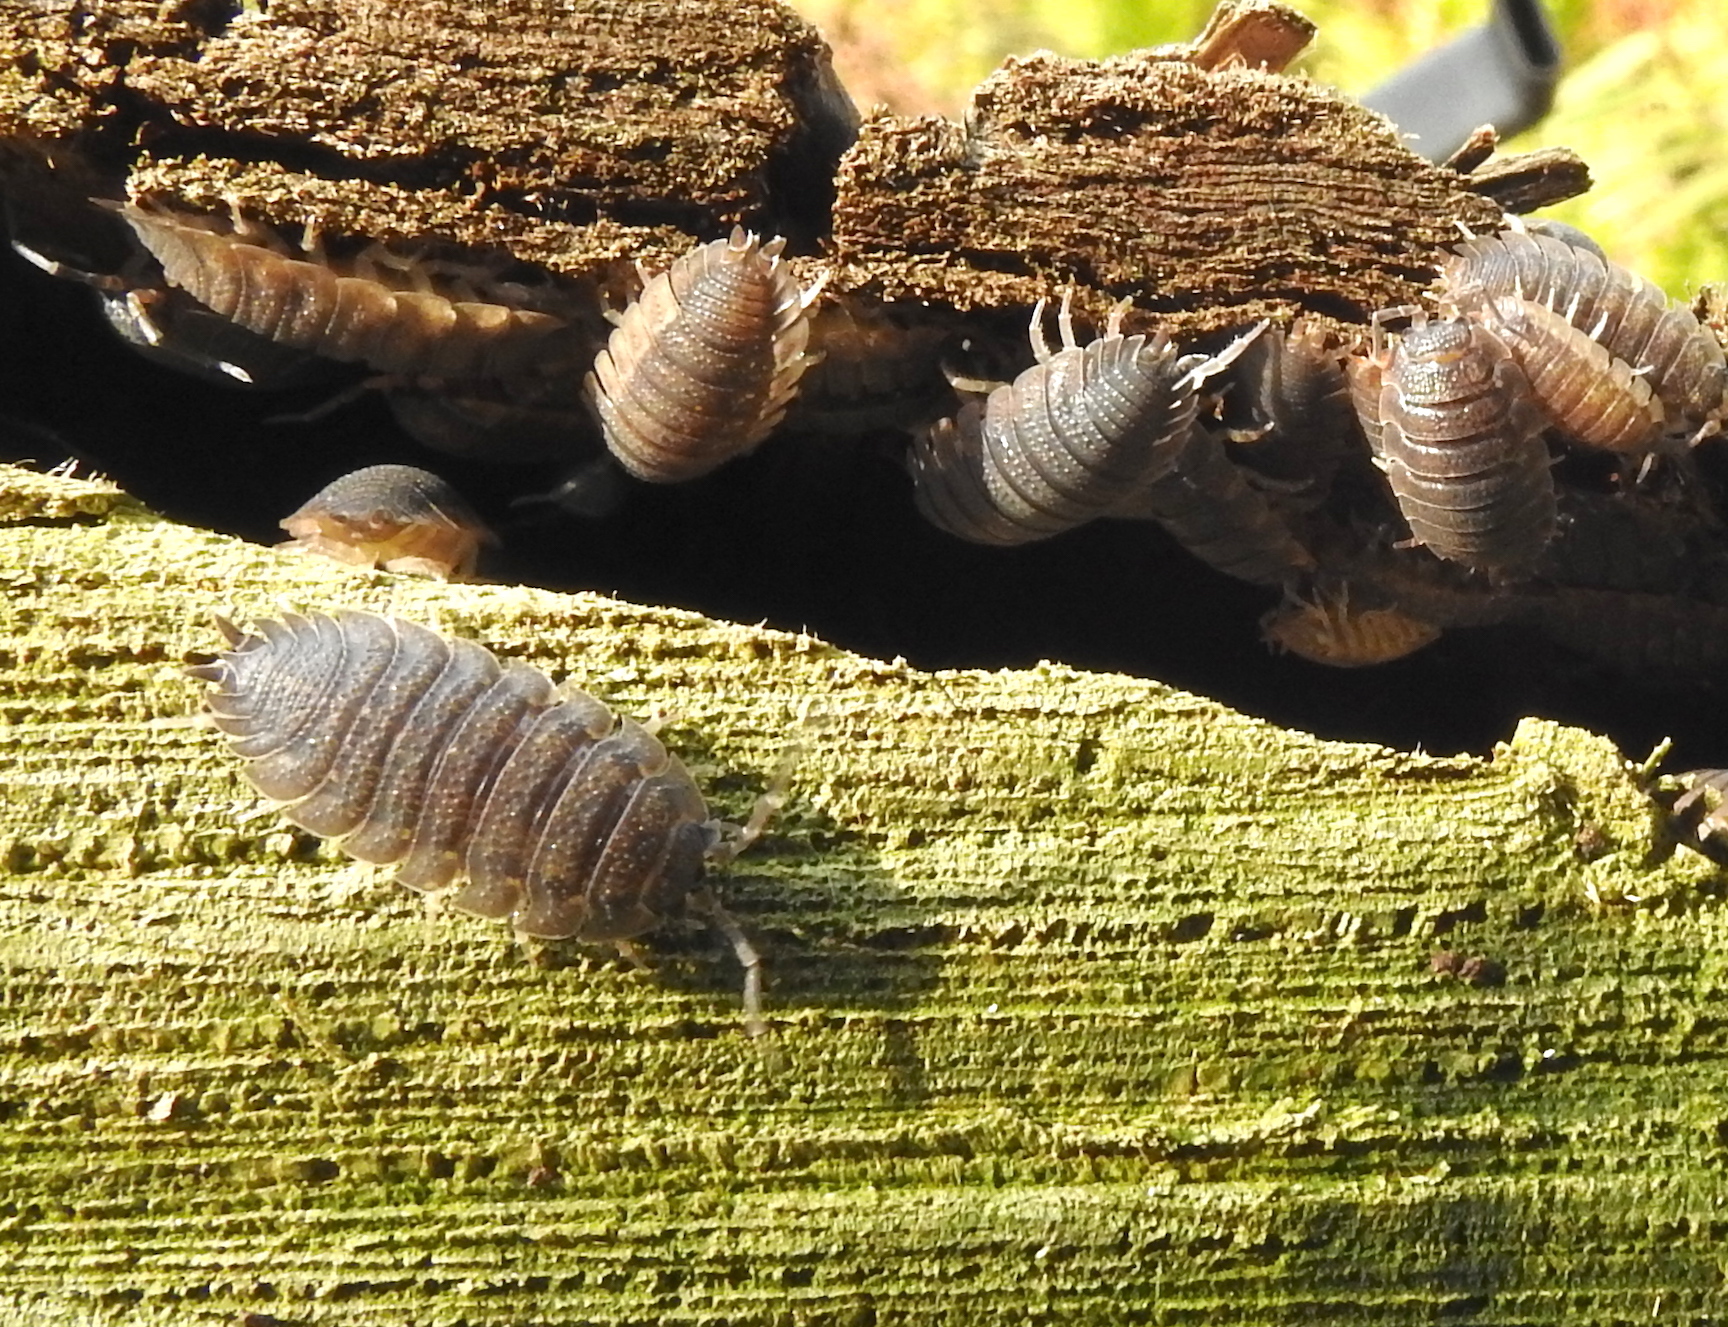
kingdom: Animalia
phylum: Arthropoda
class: Malacostraca
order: Isopoda
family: Porcellionidae
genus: Porcellio
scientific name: Porcellio scaber
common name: Common rough woodlouse
